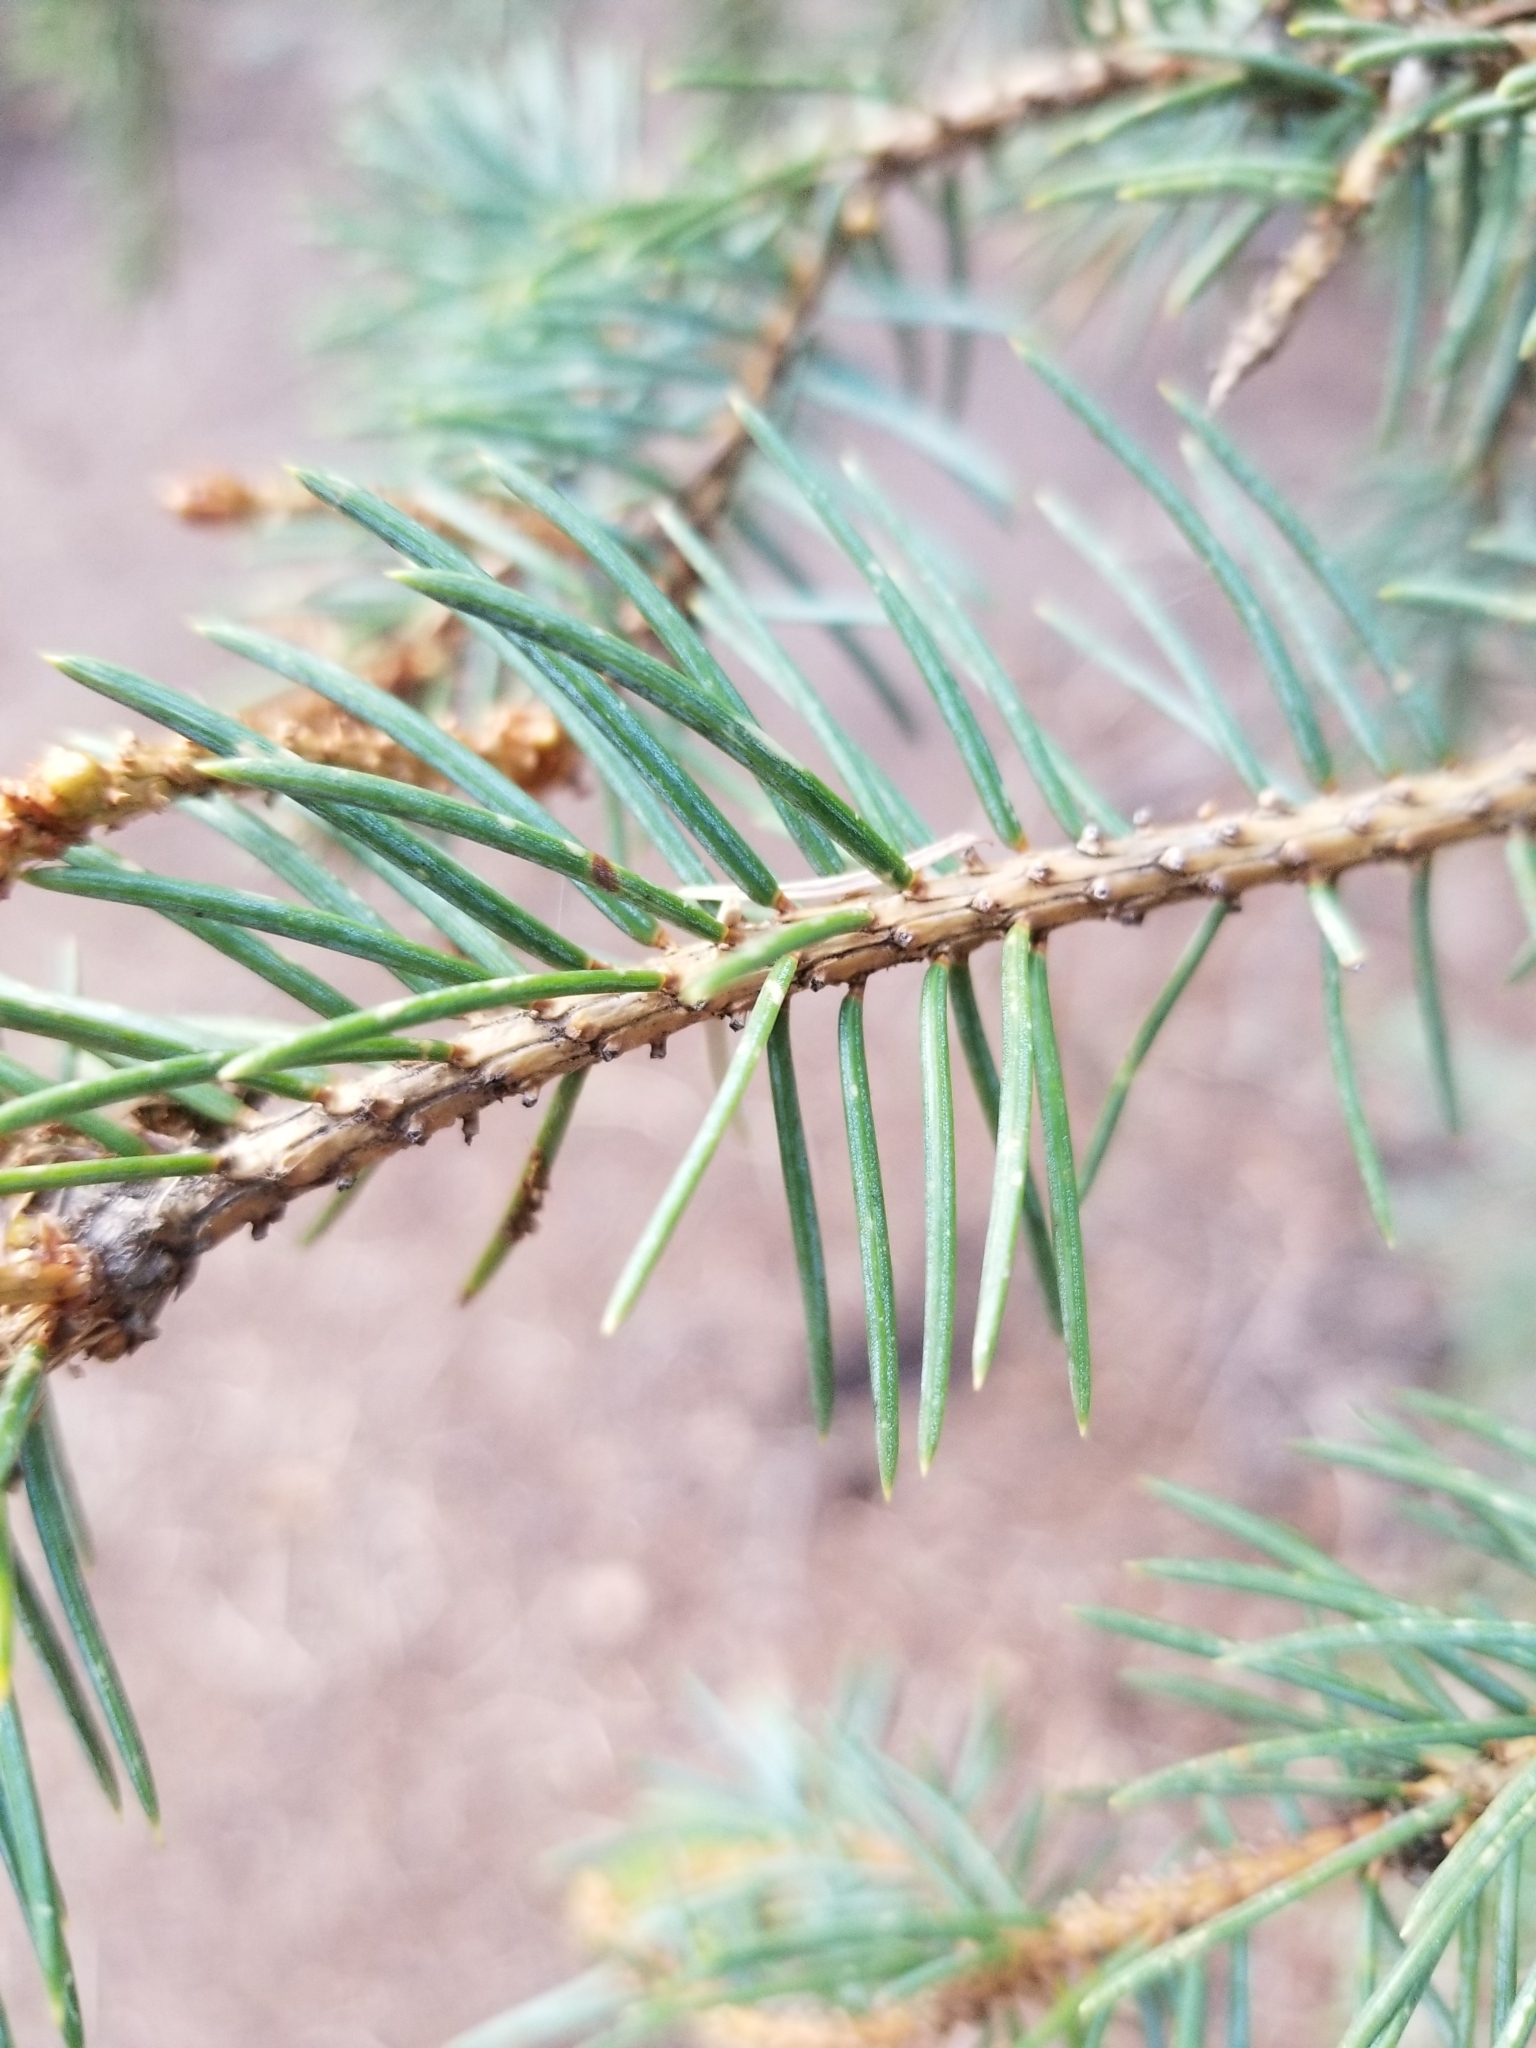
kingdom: Plantae
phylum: Tracheophyta
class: Pinopsida
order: Pinales
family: Pinaceae
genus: Picea
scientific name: Picea engelmannii
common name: Engelmann spruce
